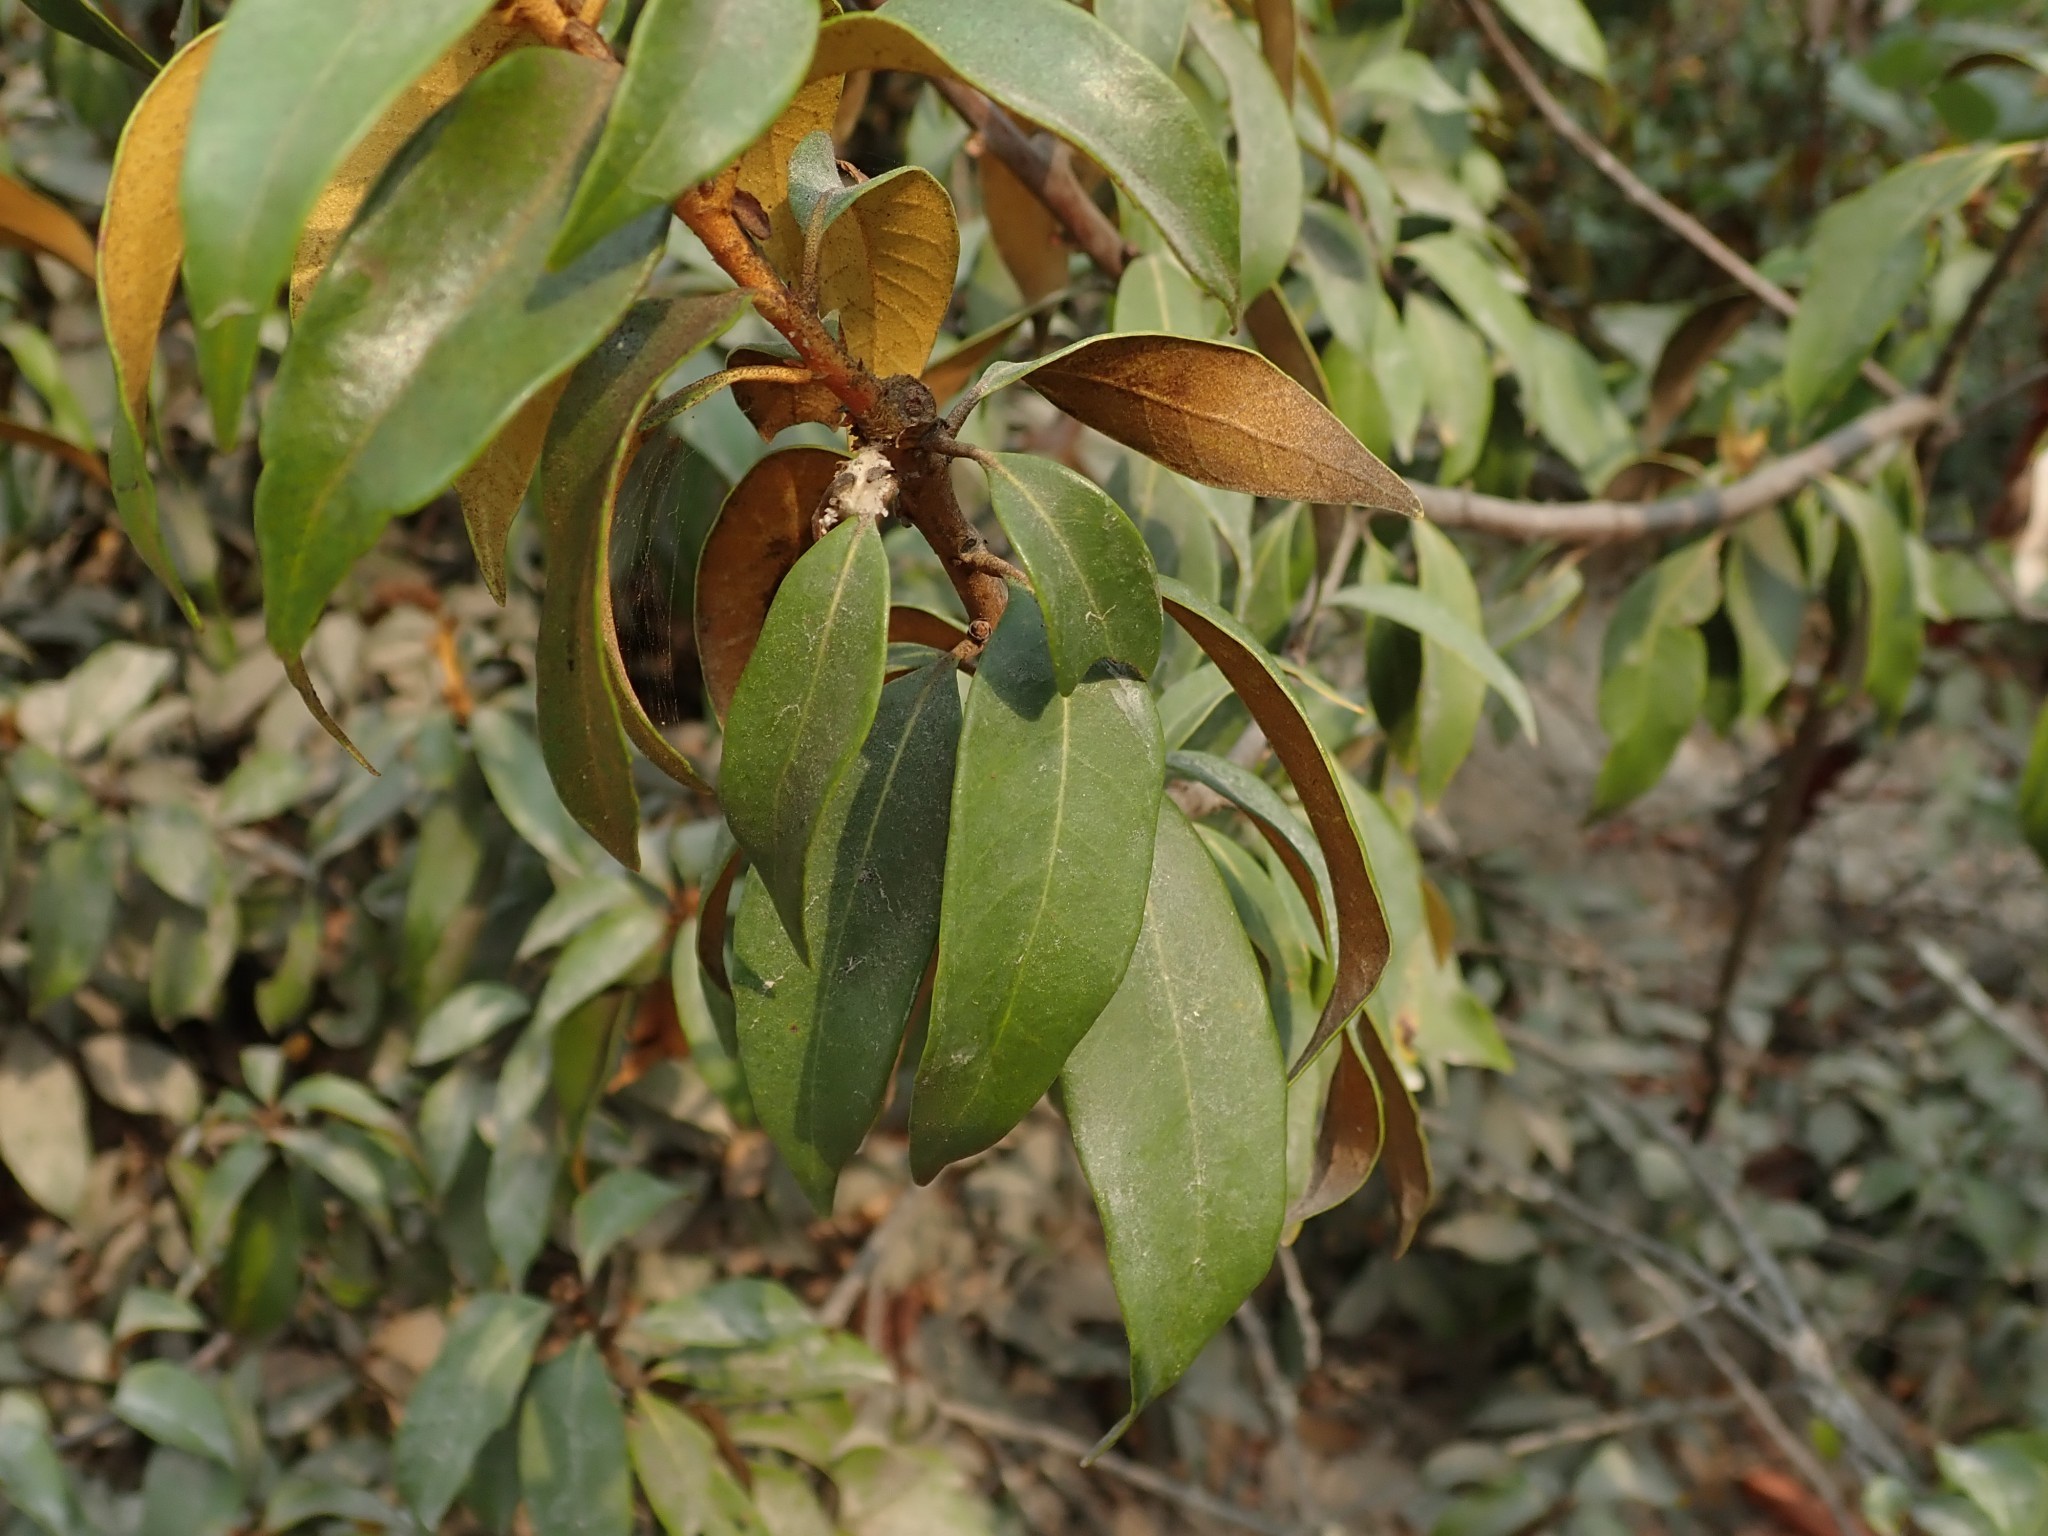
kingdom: Plantae
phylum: Tracheophyta
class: Magnoliopsida
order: Fagales
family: Fagaceae
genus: Chrysolepis
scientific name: Chrysolepis chrysophylla
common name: Giant chinquapin
